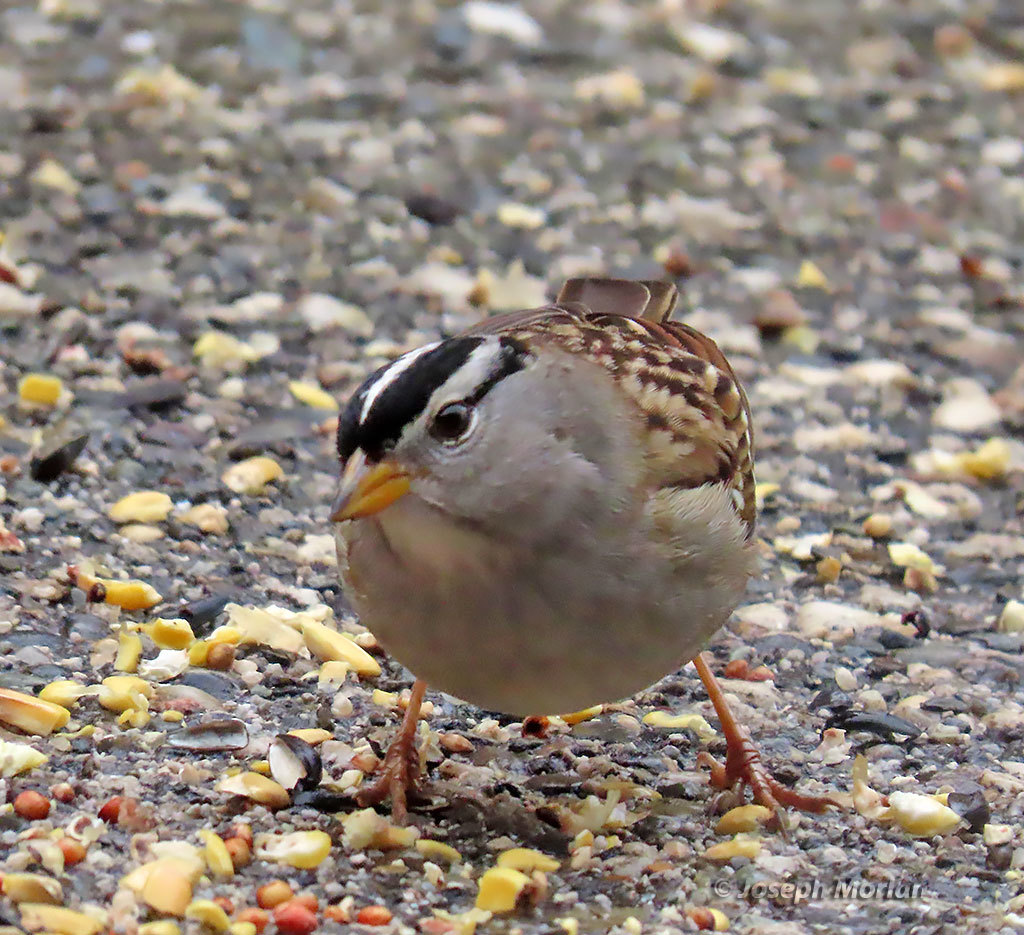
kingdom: Animalia
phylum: Chordata
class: Aves
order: Passeriformes
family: Passerellidae
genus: Zonotrichia
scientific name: Zonotrichia leucophrys
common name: White-crowned sparrow
